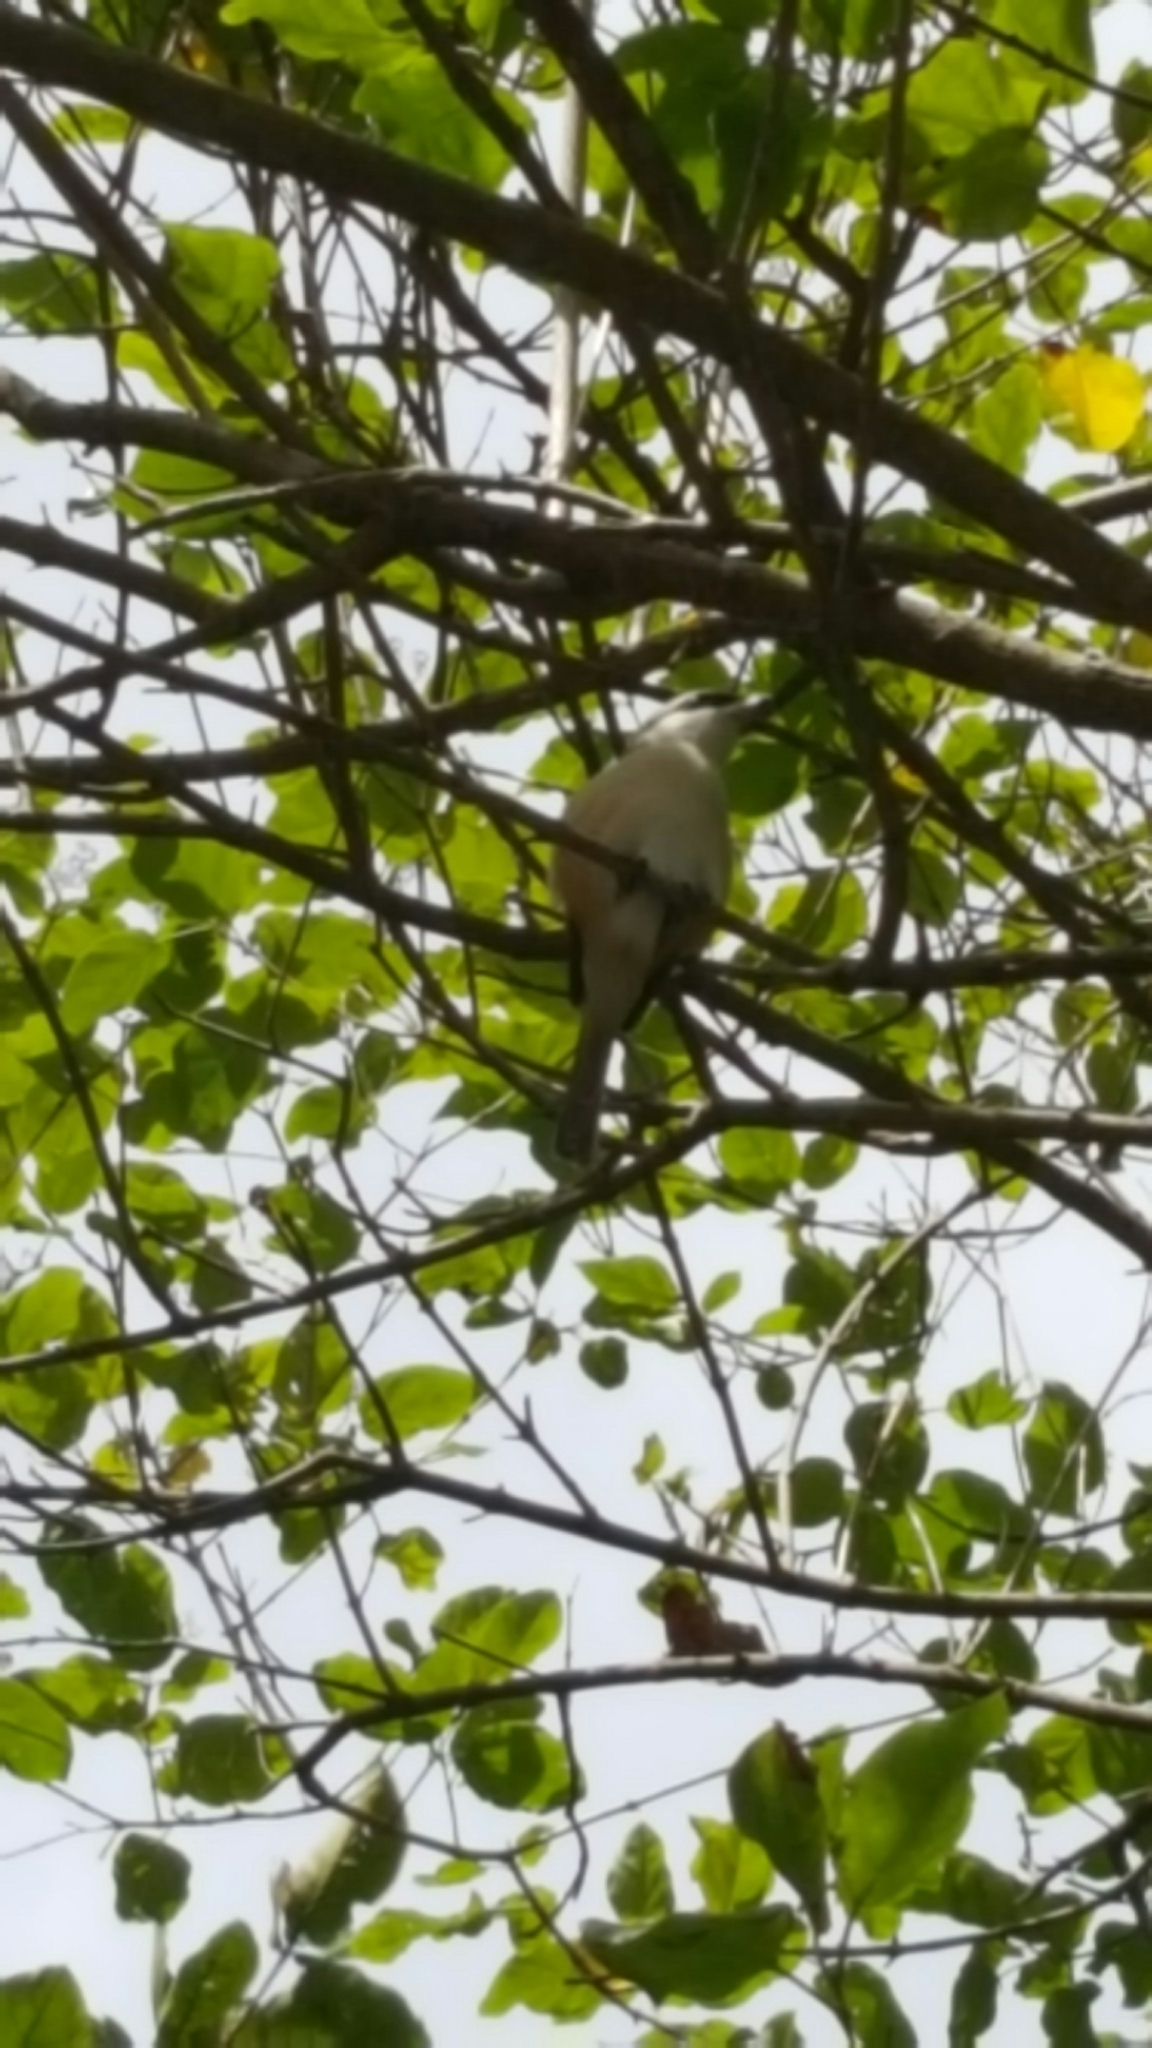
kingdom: Animalia
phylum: Chordata
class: Aves
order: Passeriformes
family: Laniidae
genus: Lanius
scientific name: Lanius cristatus
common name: Brown shrike
